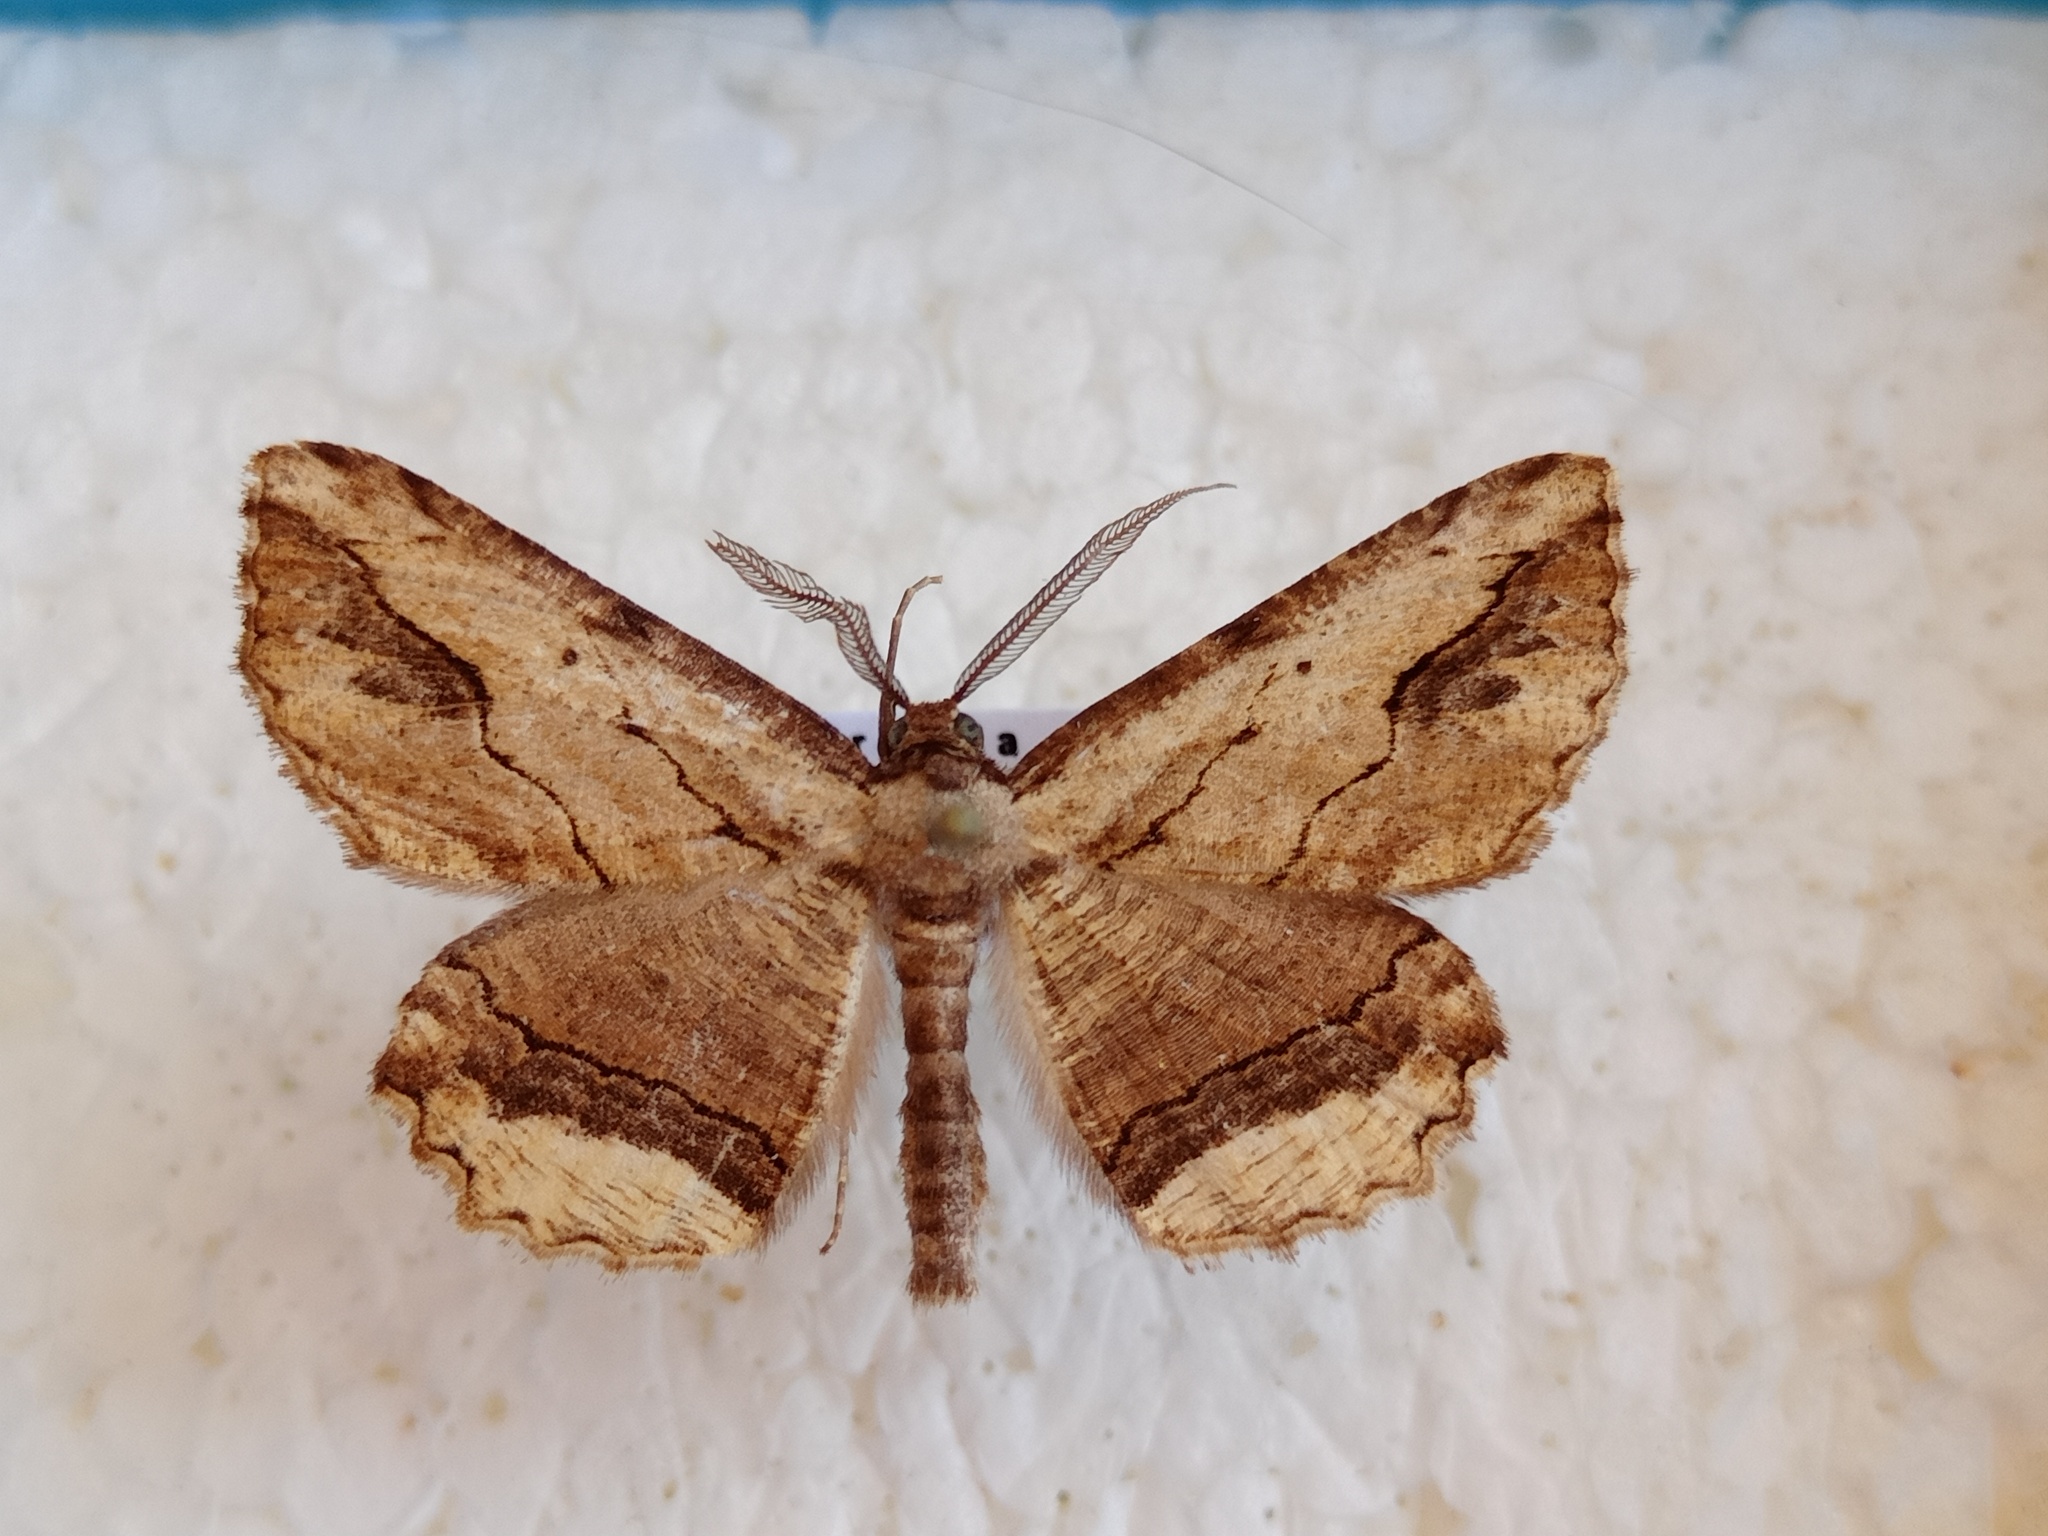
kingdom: Animalia
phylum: Arthropoda
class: Insecta
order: Lepidoptera
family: Geometridae
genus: Menophra
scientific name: Menophra abruptaria
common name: Waved umber
